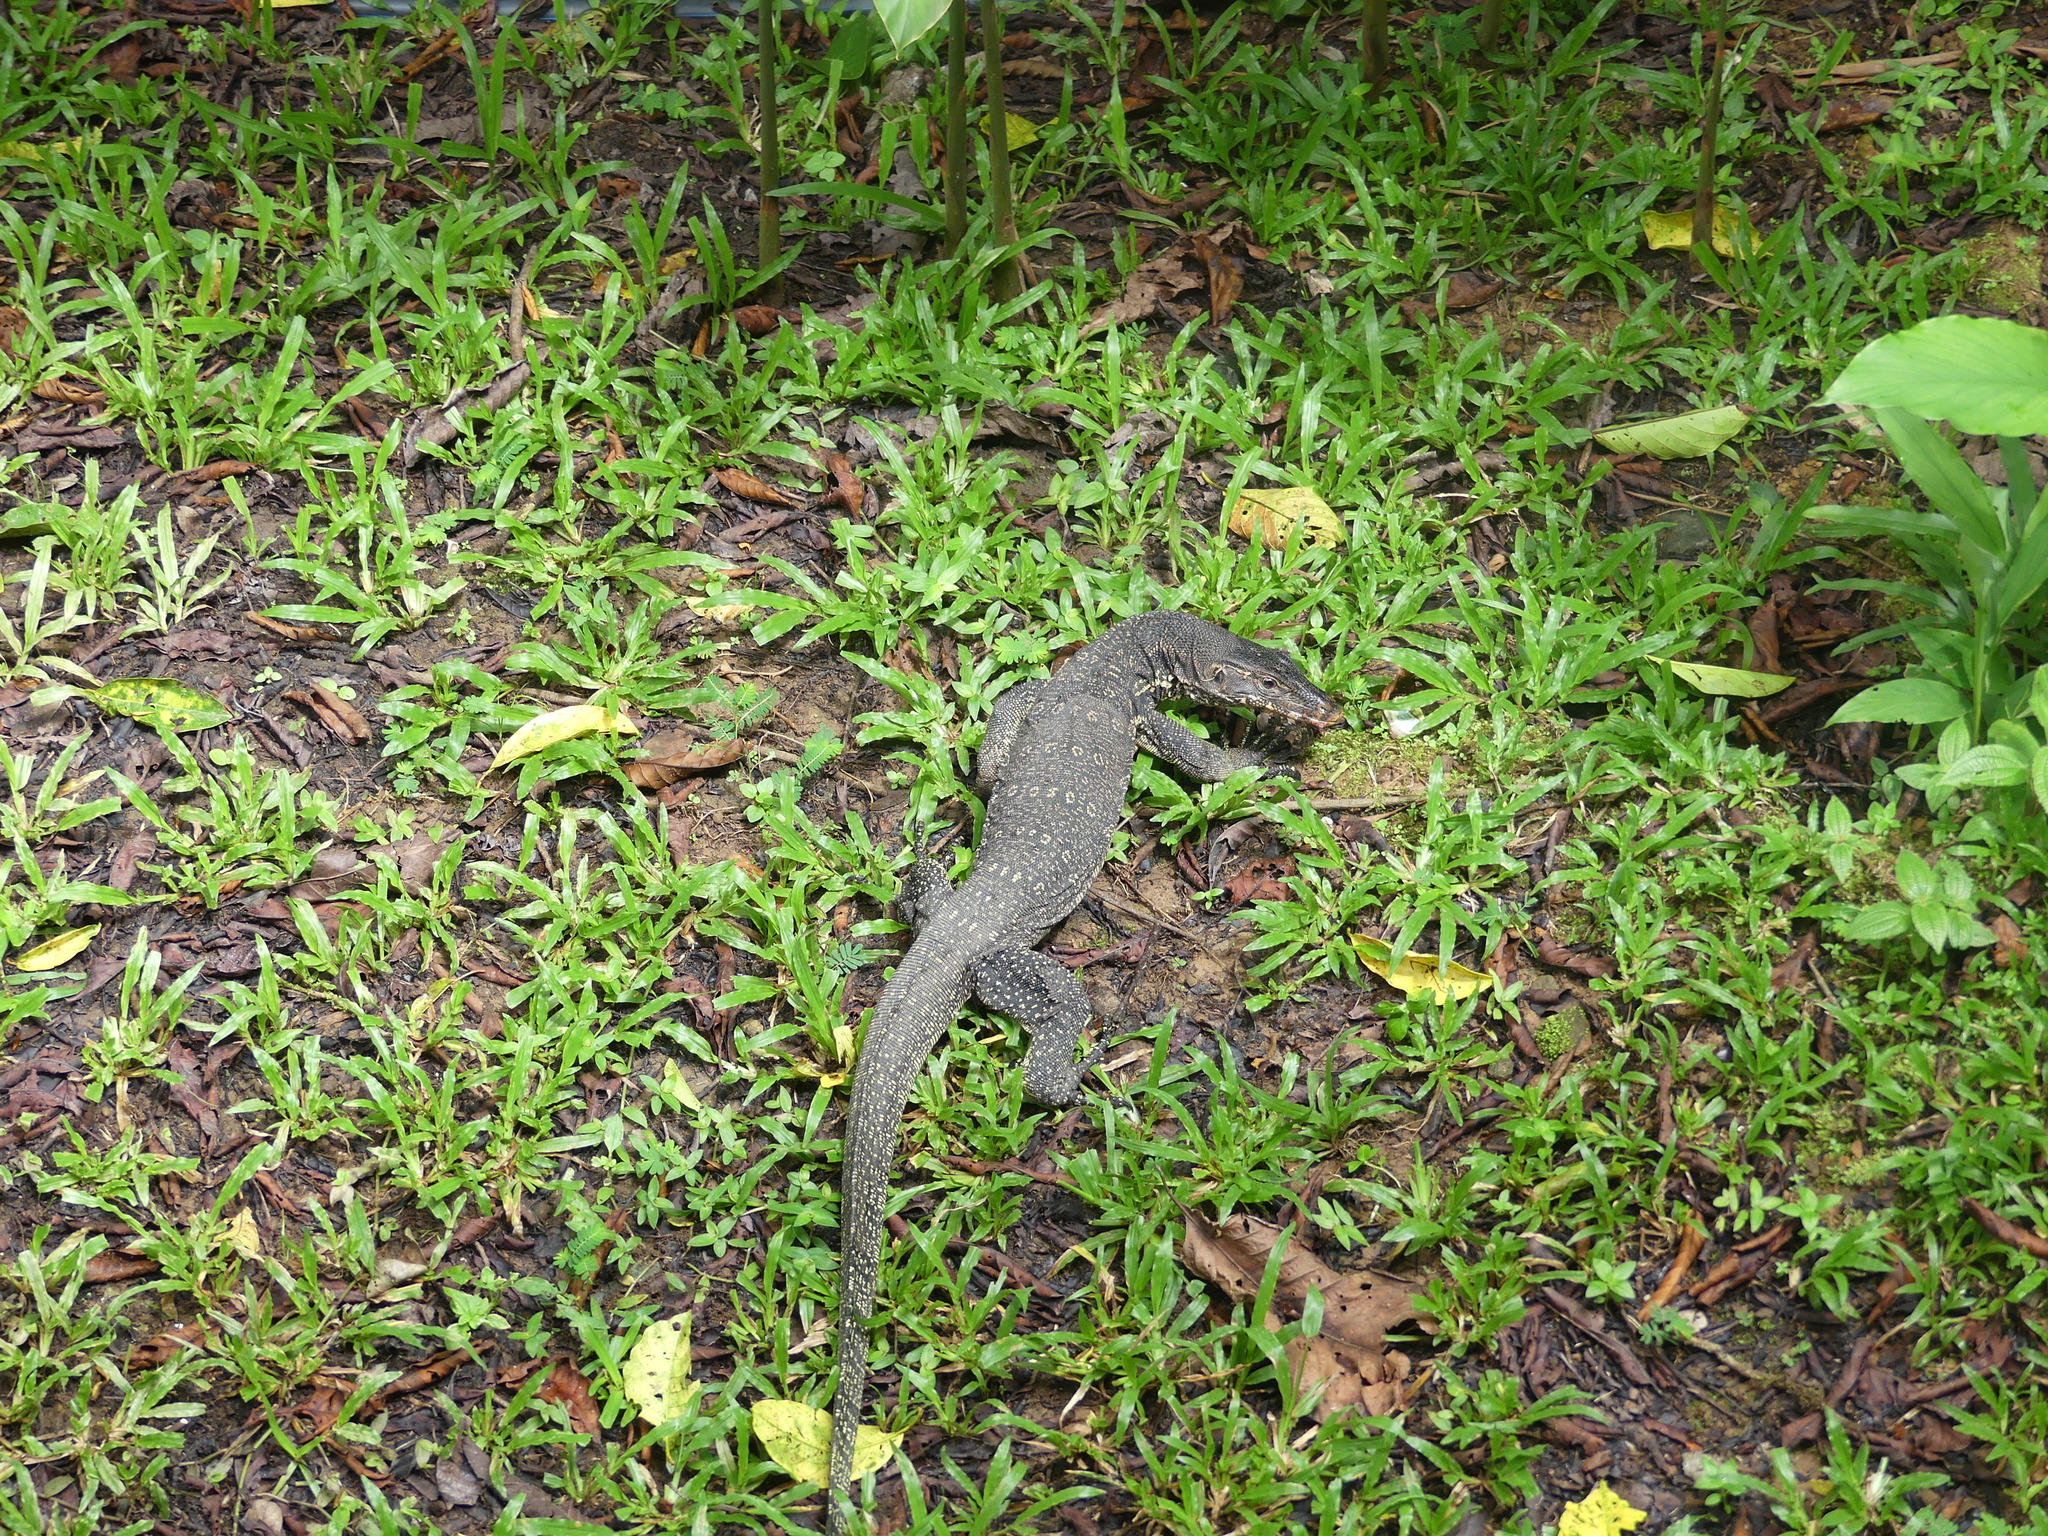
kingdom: Animalia
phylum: Chordata
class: Squamata
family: Varanidae
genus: Varanus
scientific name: Varanus salvator
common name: Common water monitor
